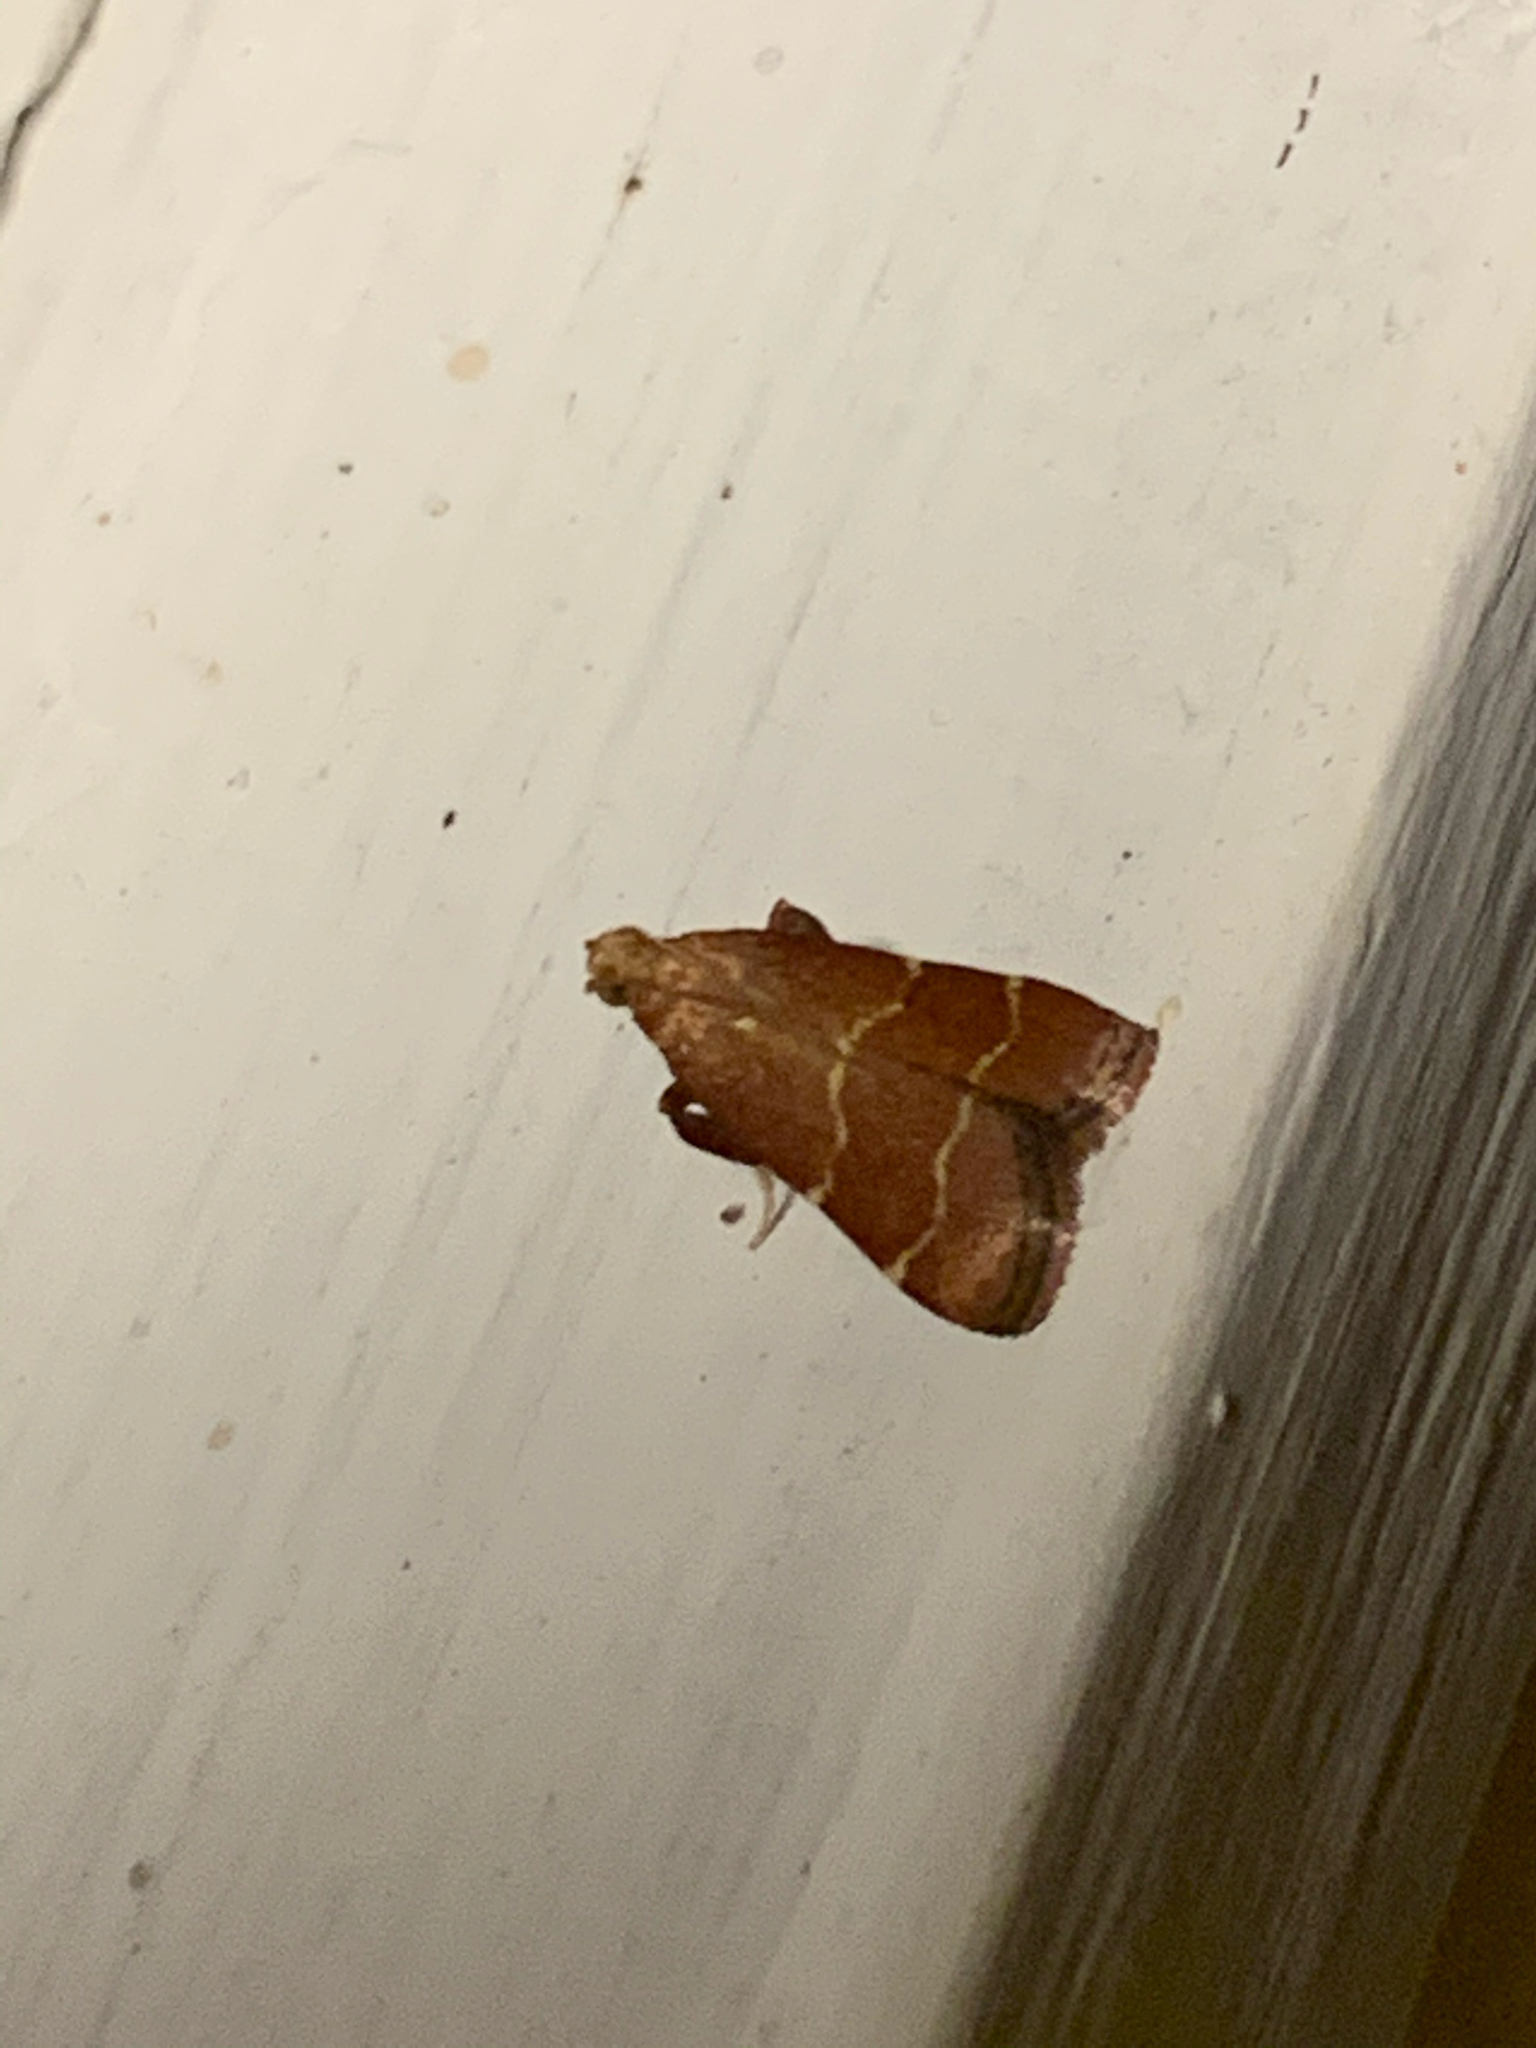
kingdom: Animalia
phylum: Arthropoda
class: Insecta
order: Lepidoptera
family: Pyralidae
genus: Arta
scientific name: Arta statalis
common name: Posturing arta moth
